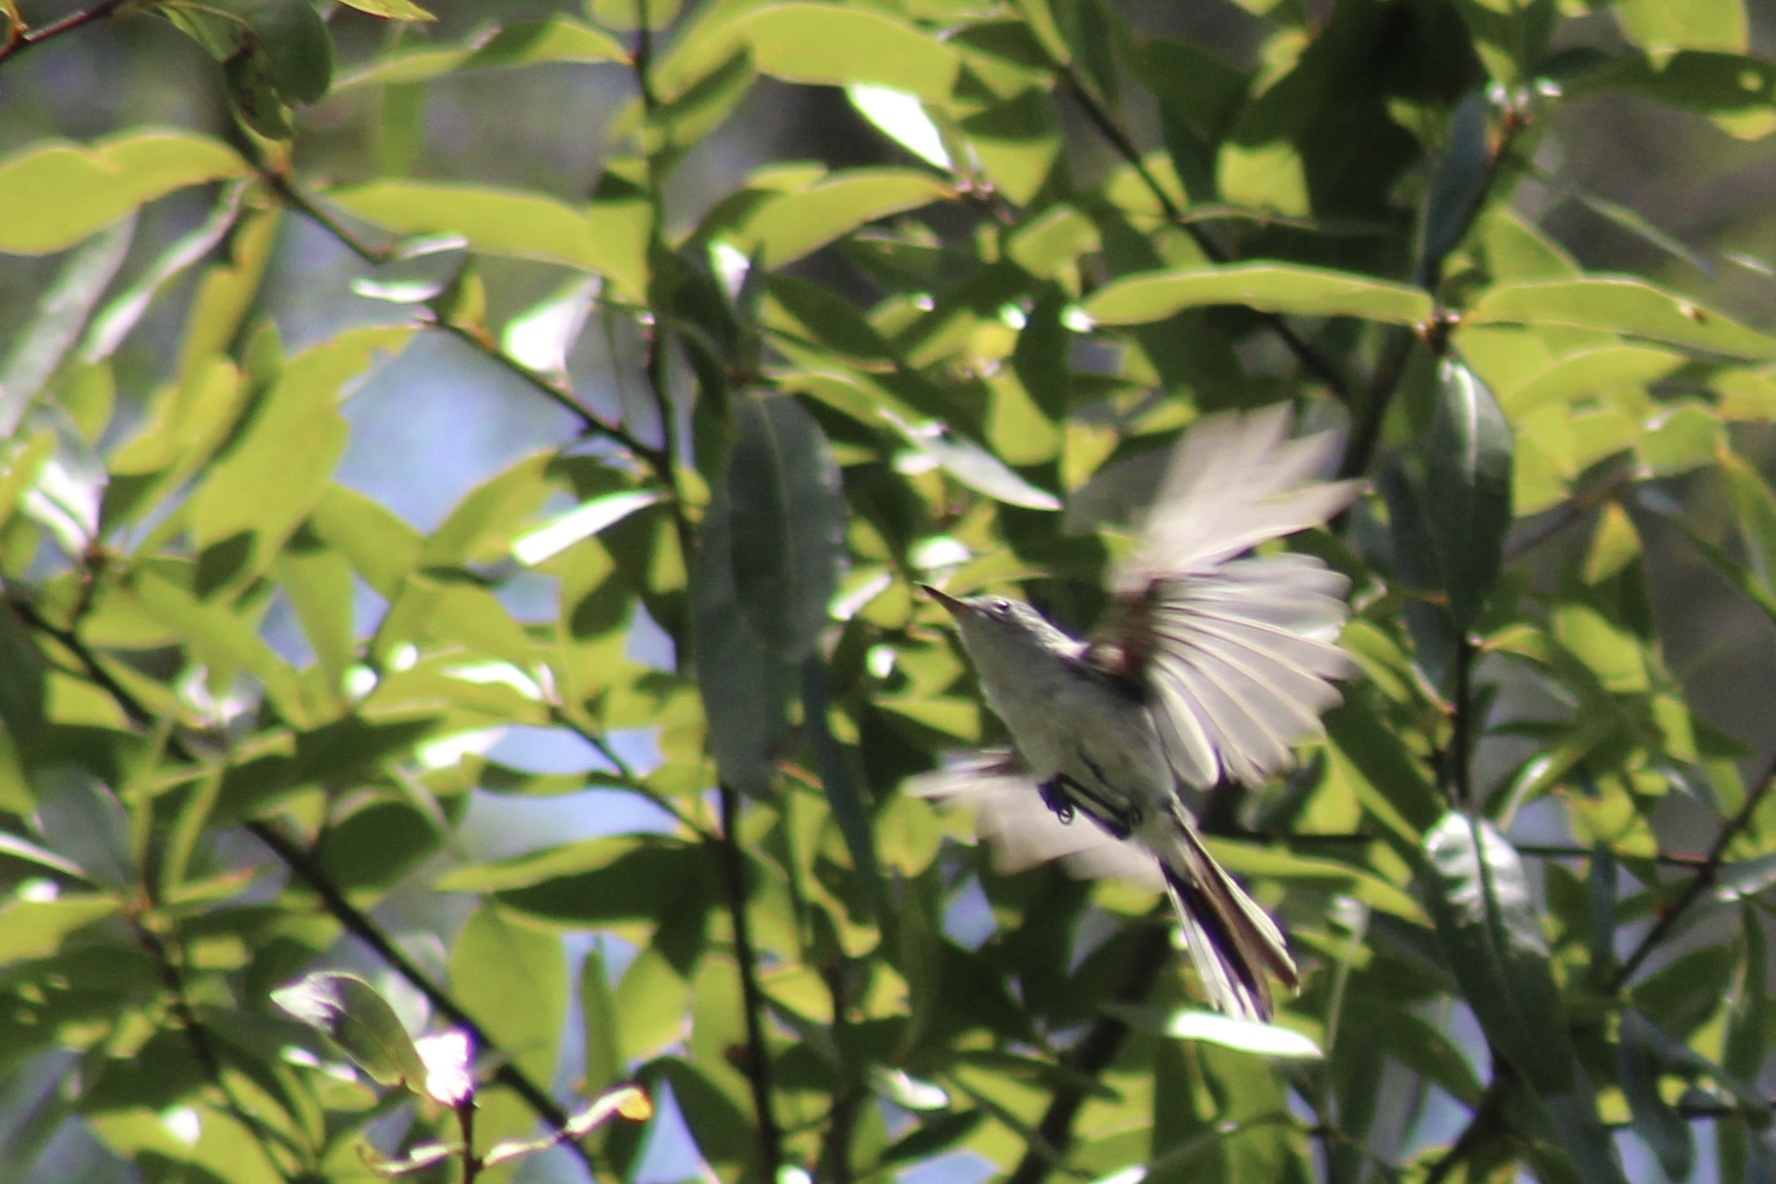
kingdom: Animalia
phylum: Chordata
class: Aves
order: Passeriformes
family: Polioptilidae
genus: Polioptila
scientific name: Polioptila caerulea
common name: Blue-gray gnatcatcher
